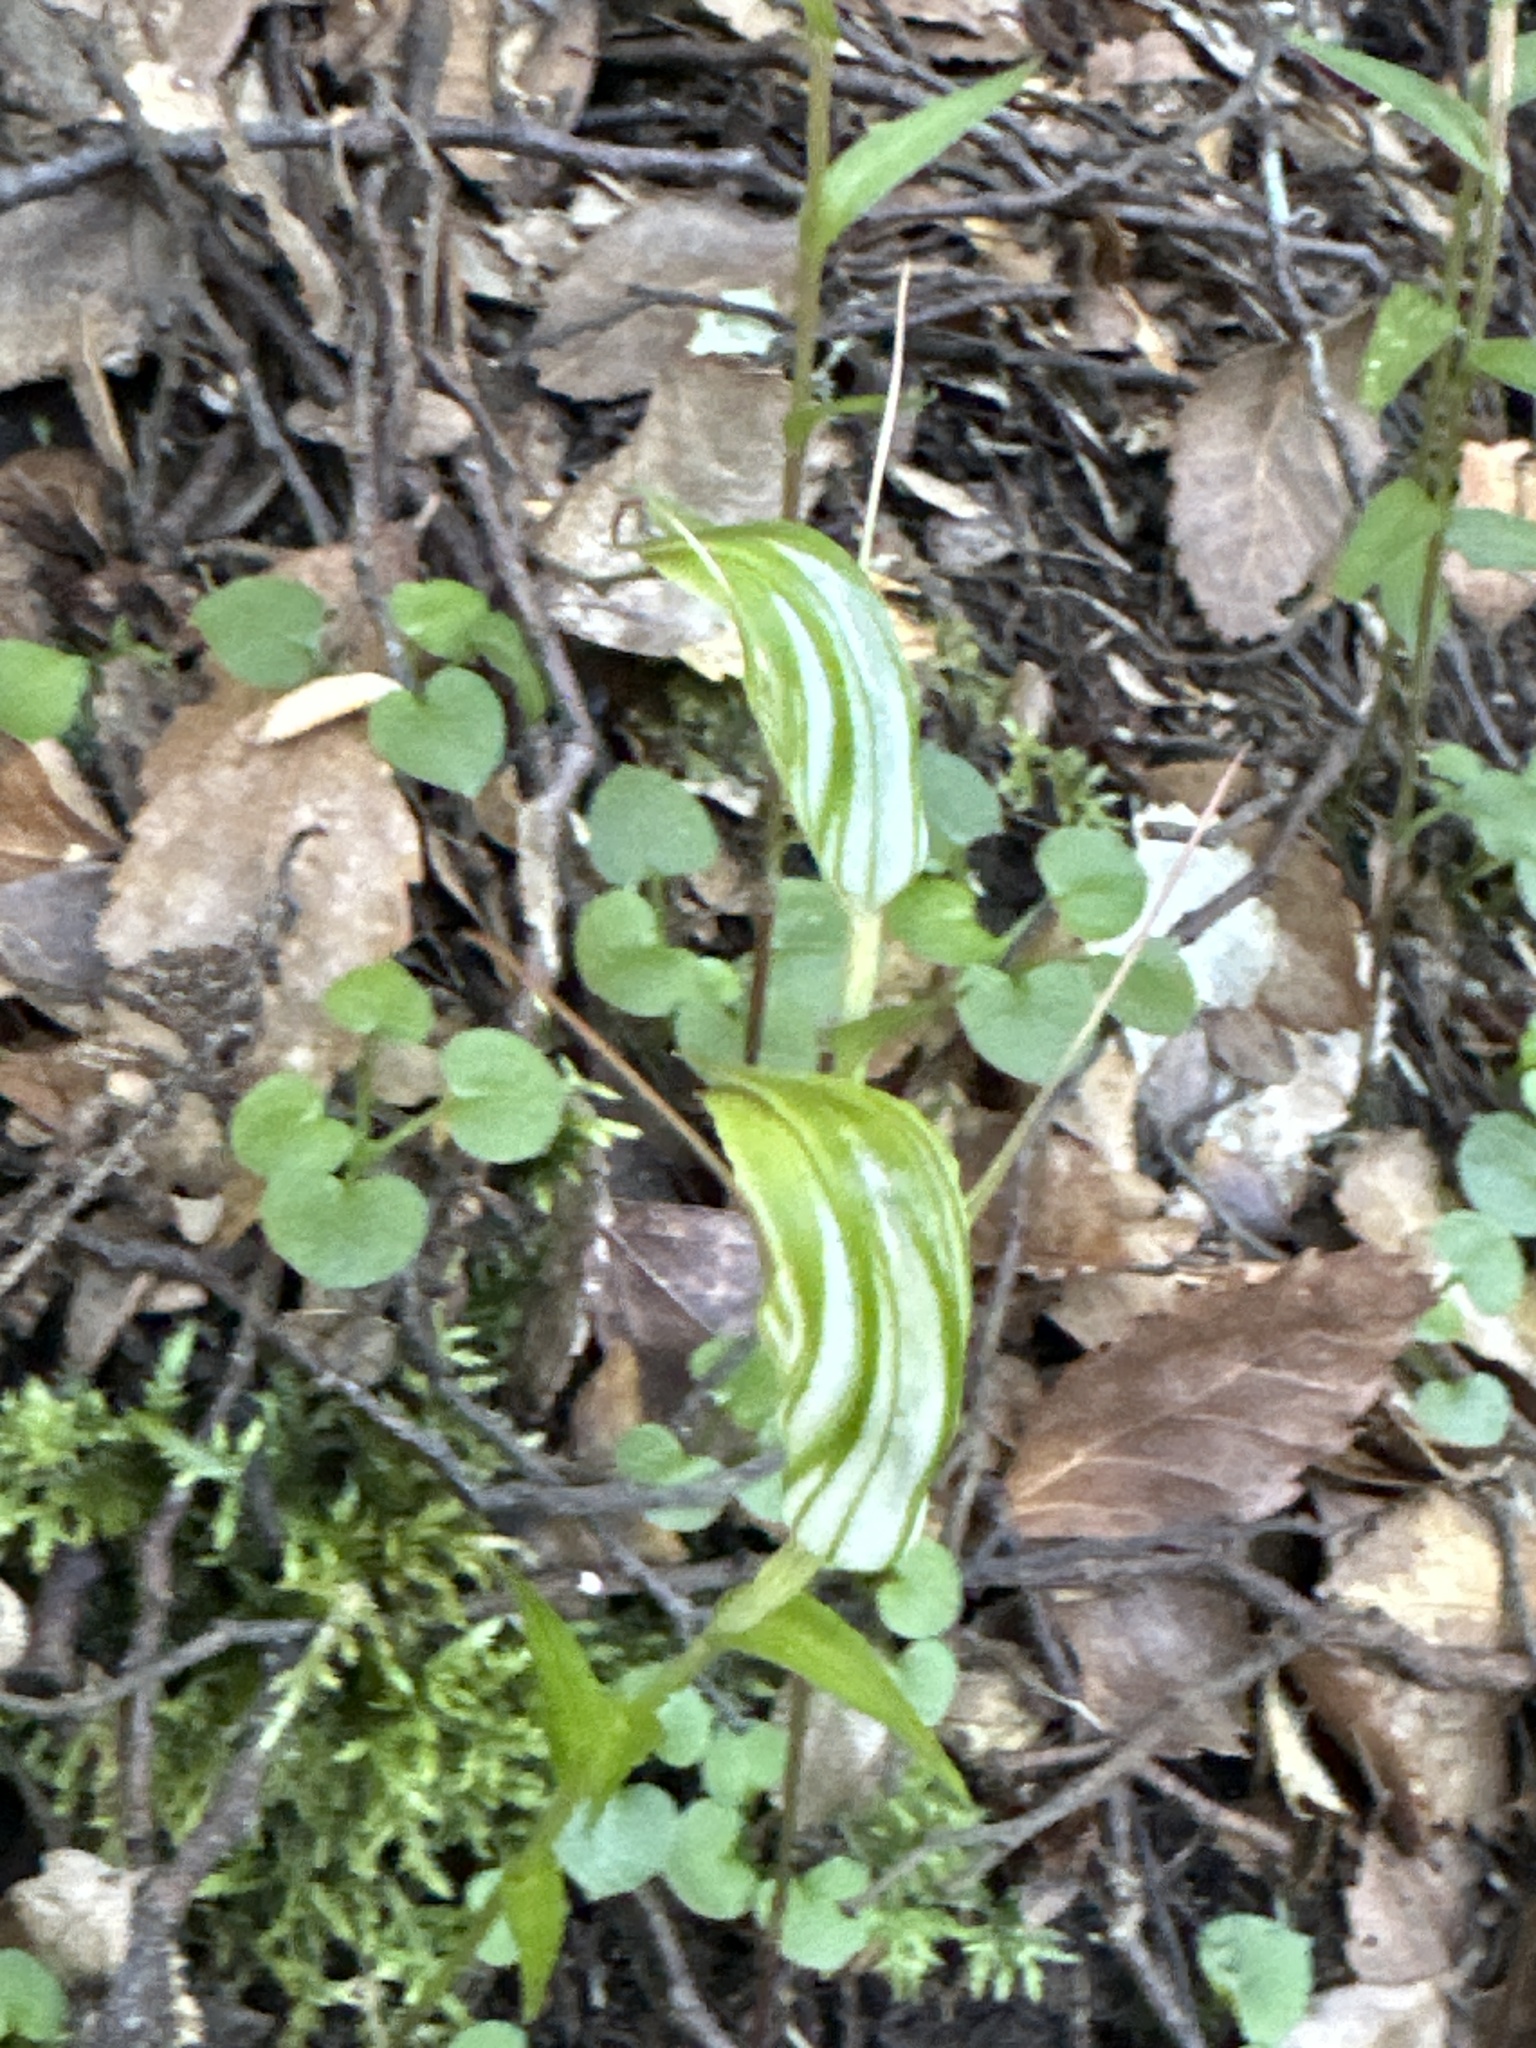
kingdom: Plantae
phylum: Tracheophyta
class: Liliopsida
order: Asparagales
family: Orchidaceae
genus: Pterostylis
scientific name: Pterostylis alobula
